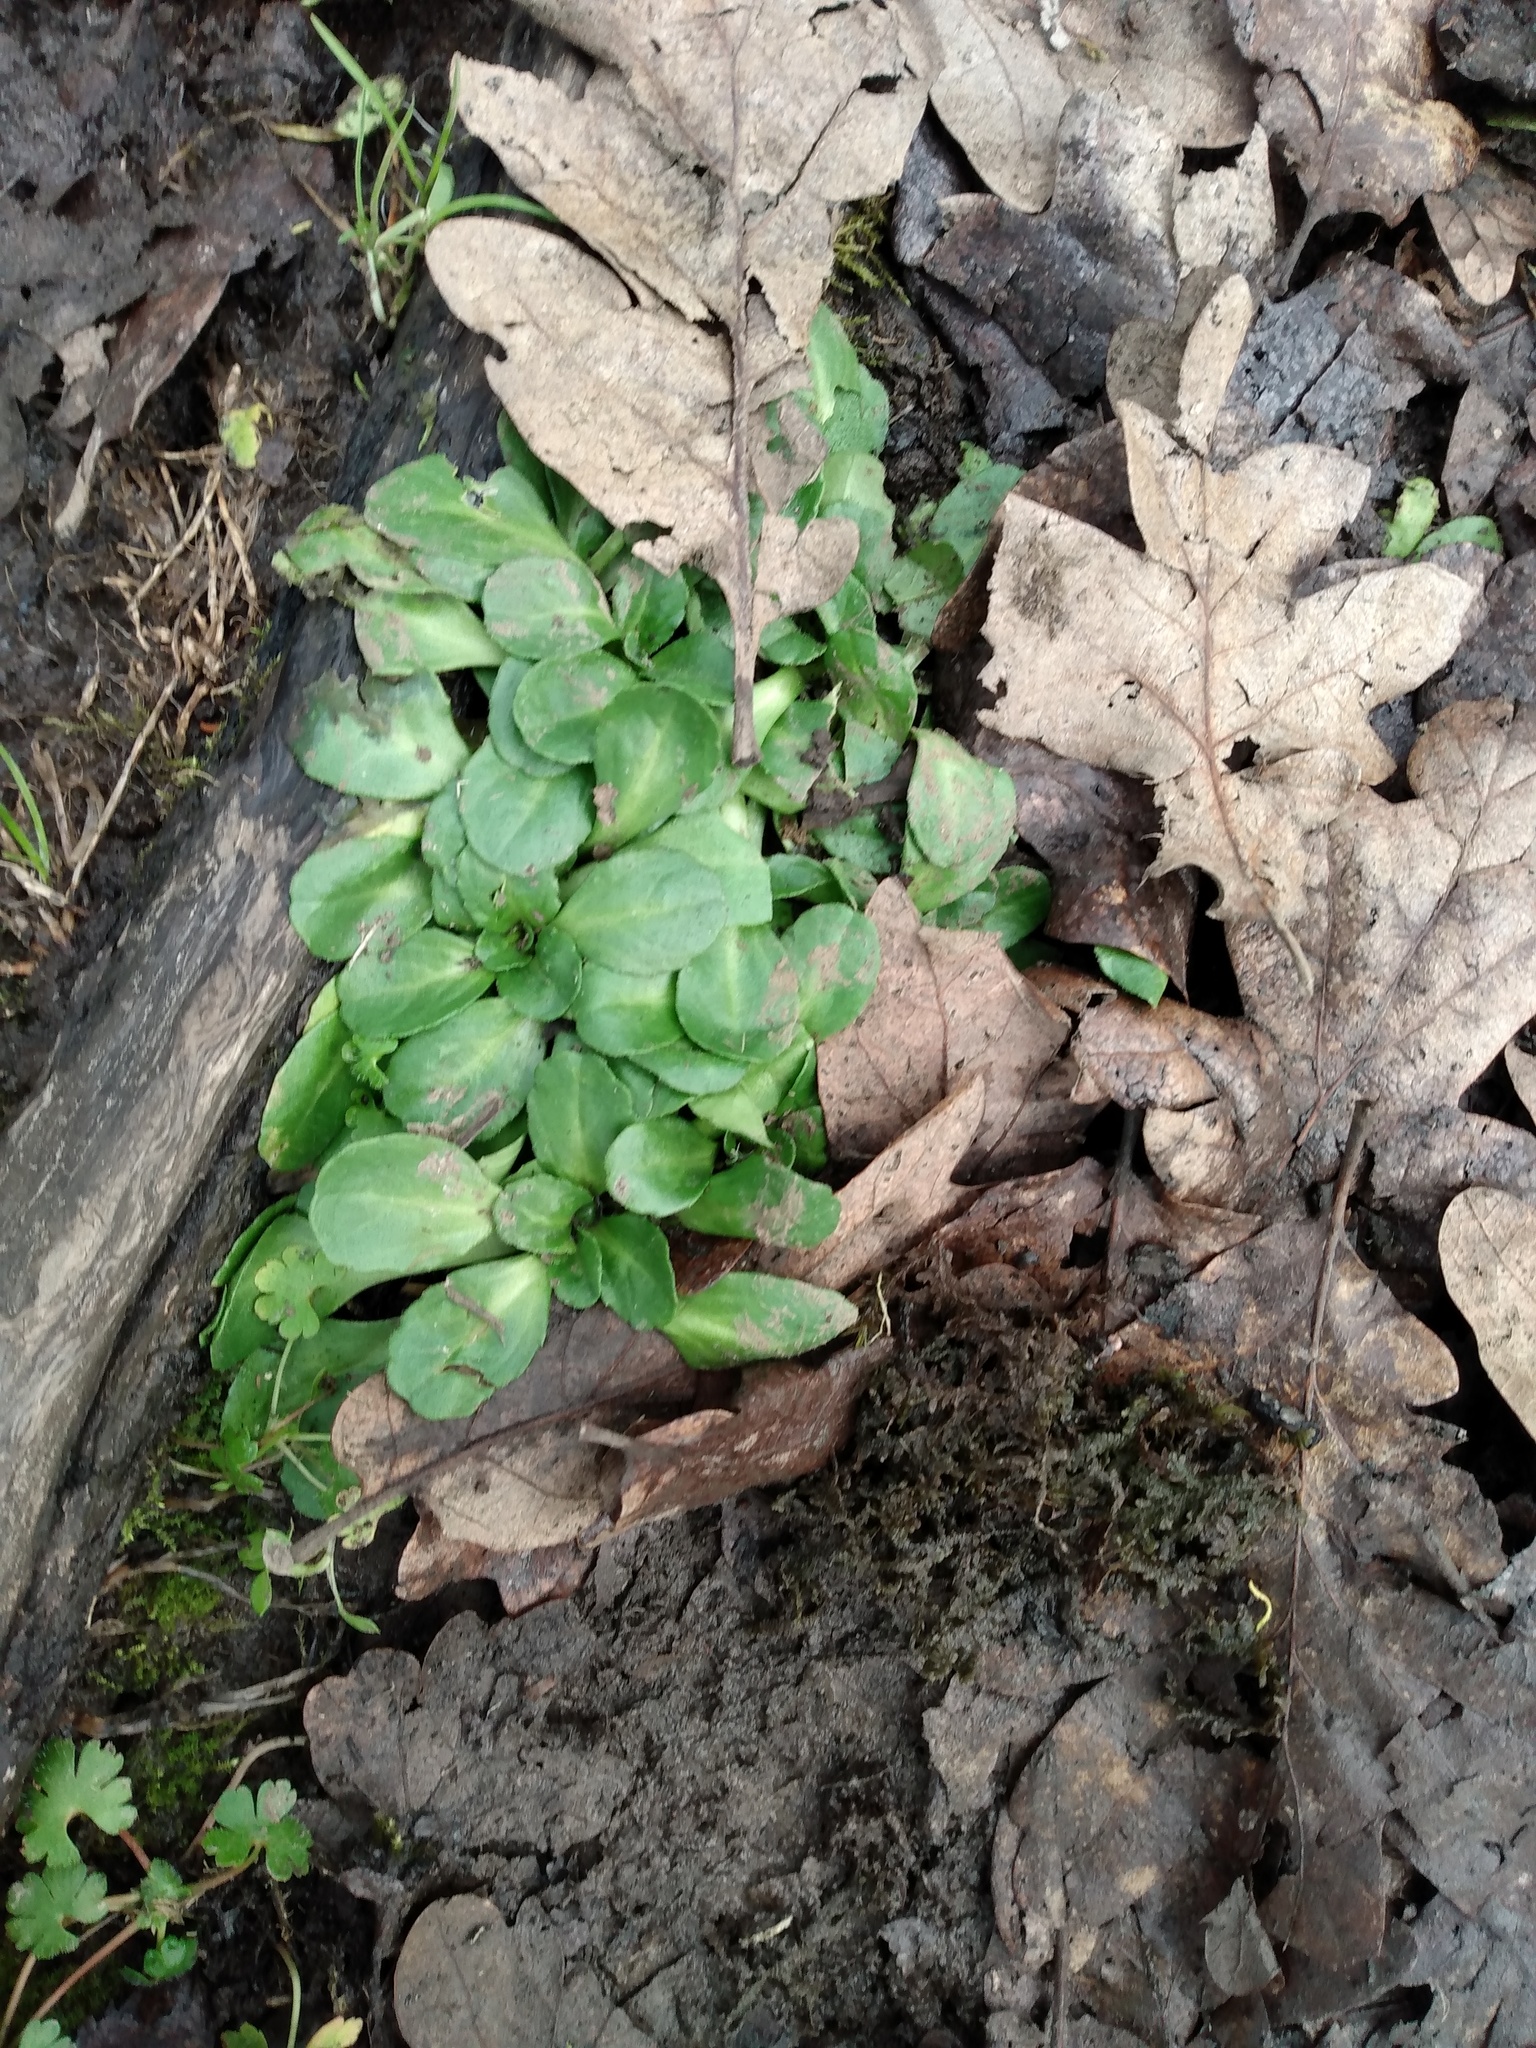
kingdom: Plantae
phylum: Tracheophyta
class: Magnoliopsida
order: Asterales
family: Asteraceae
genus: Bellis
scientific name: Bellis perennis
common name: Lawndaisy
